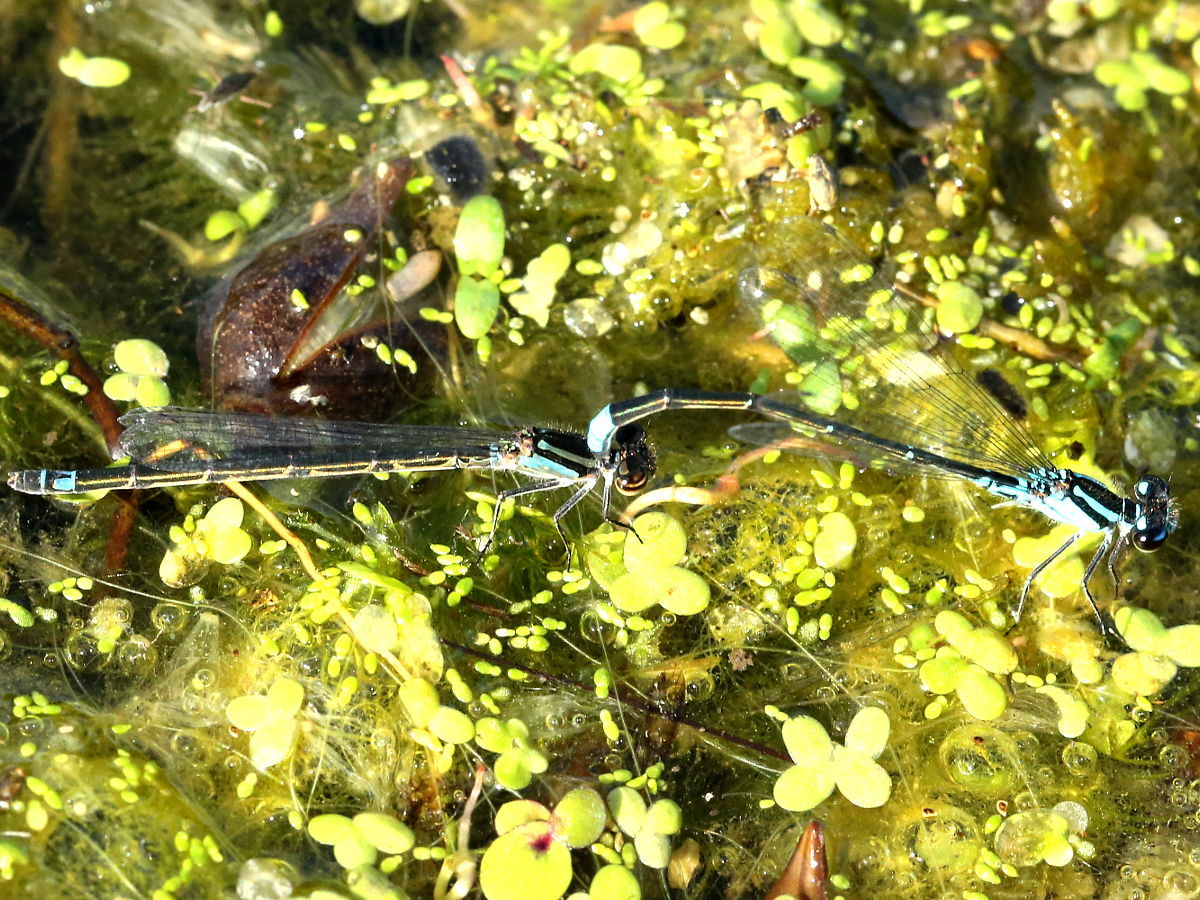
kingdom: Animalia
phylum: Arthropoda
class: Insecta
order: Odonata
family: Coenagrionidae
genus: Enallagma
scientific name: Enallagma geminatum
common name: Skimming bluet
